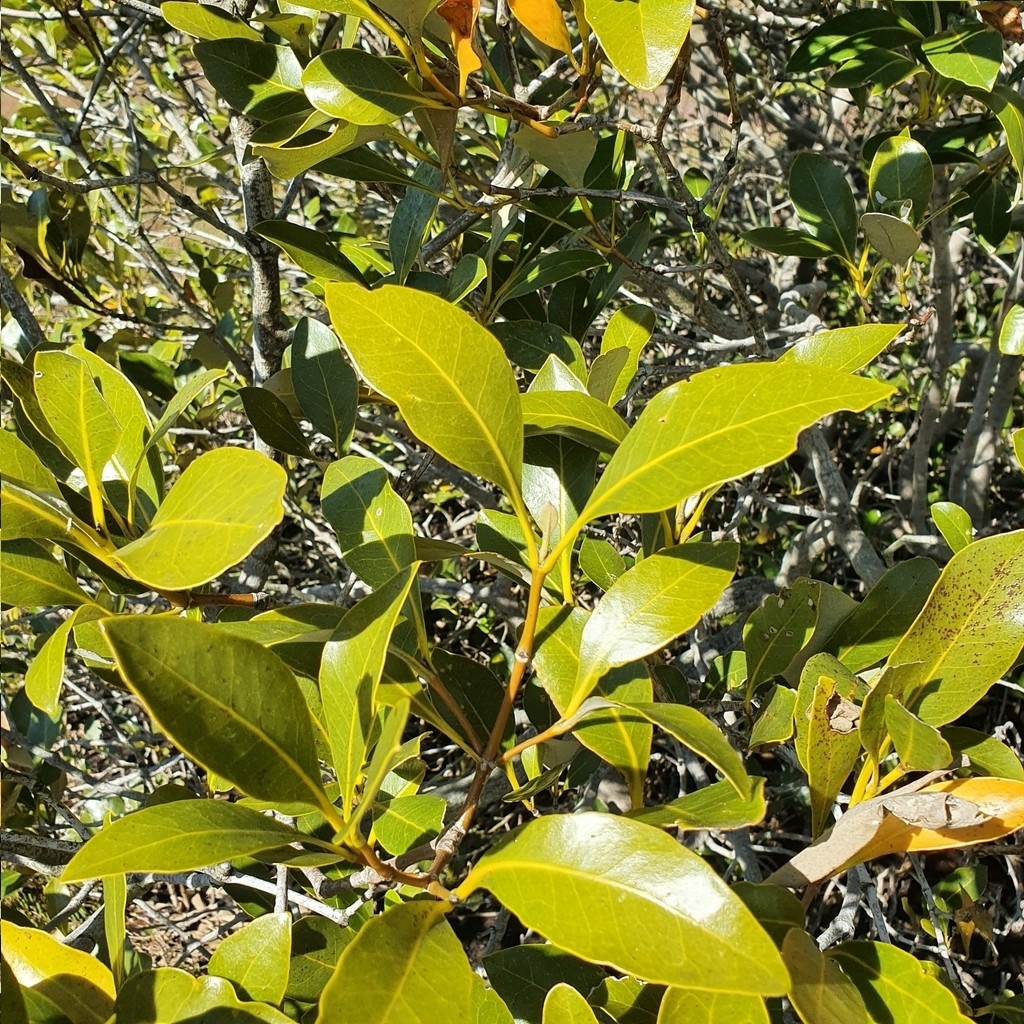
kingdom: Plantae
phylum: Tracheophyta
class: Magnoliopsida
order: Lamiales
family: Acanthaceae
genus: Avicennia
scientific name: Avicennia marina
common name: Gray mangrove
